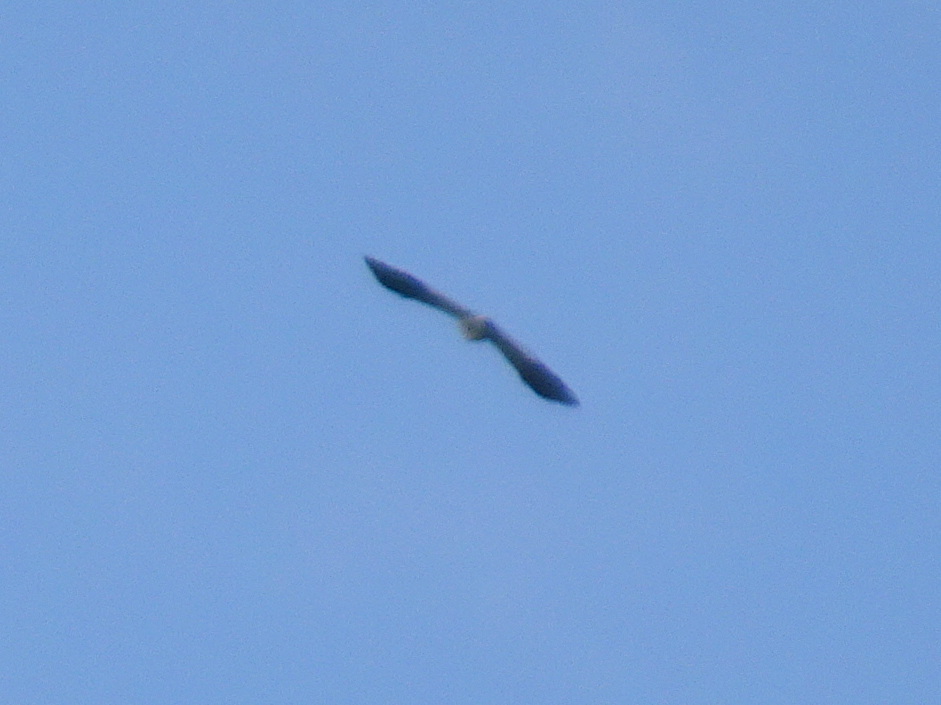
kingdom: Animalia
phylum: Chordata
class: Aves
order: Piciformes
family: Picidae
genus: Melanerpes
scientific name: Melanerpes erythrocephalus
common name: Red-headed woodpecker
